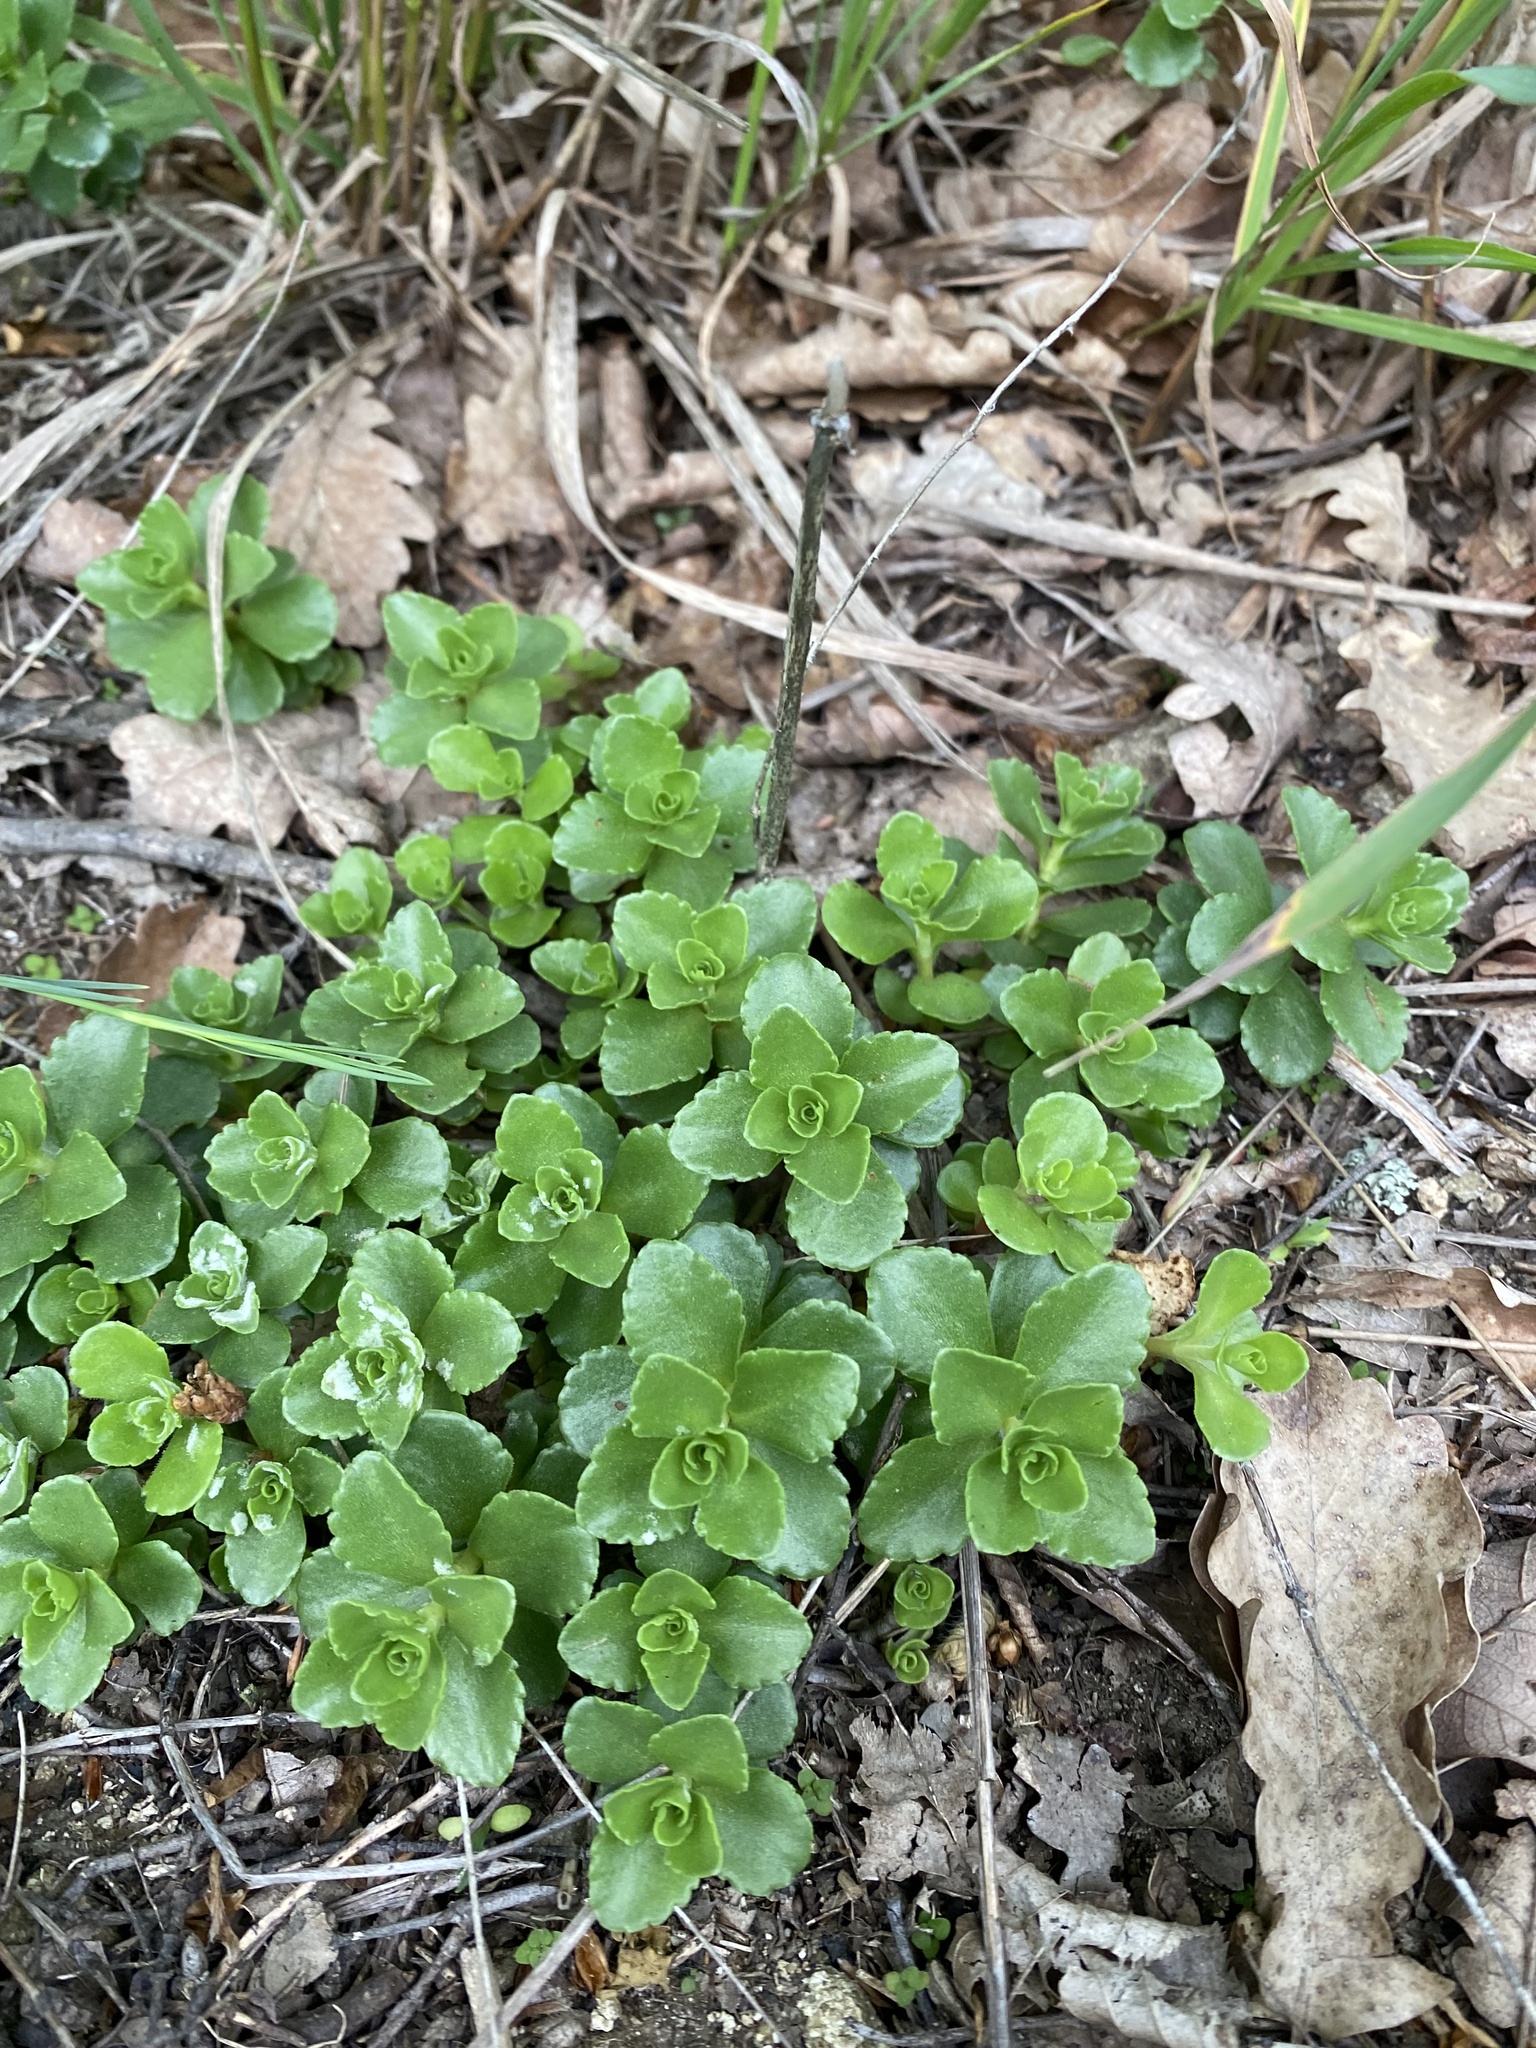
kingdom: Plantae
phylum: Tracheophyta
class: Magnoliopsida
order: Saxifragales
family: Crassulaceae
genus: Phedimus
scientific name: Phedimus spurius
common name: Caucasian stonecrop
